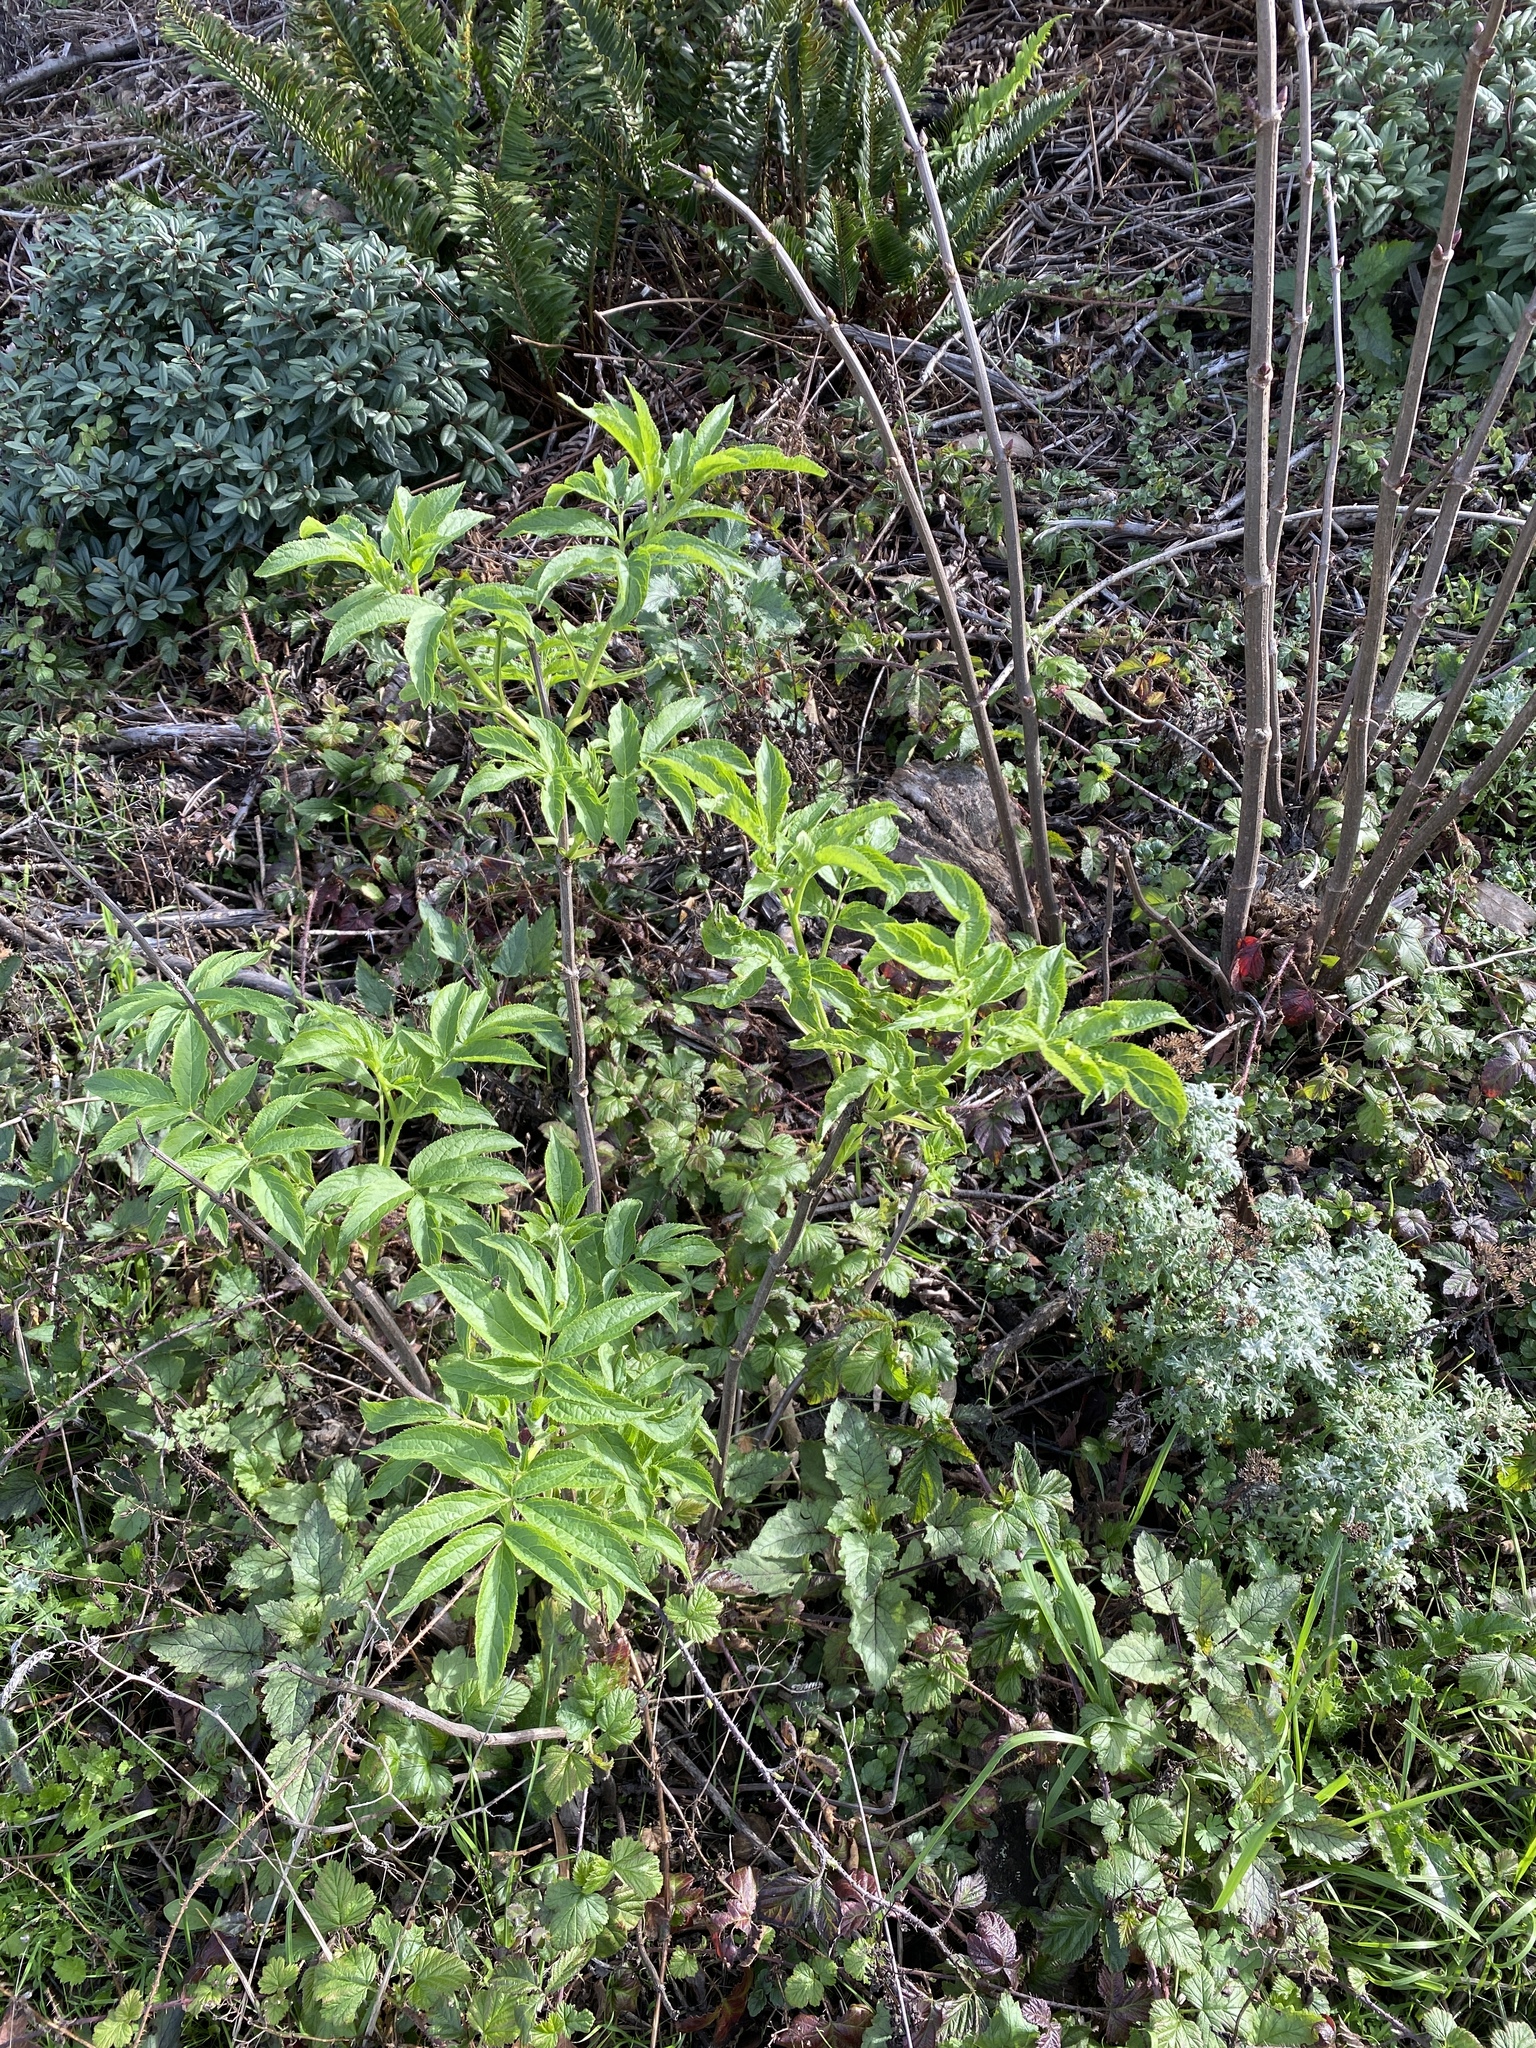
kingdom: Plantae
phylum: Tracheophyta
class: Magnoliopsida
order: Dipsacales
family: Viburnaceae
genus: Sambucus
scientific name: Sambucus racemosa
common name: Red-berried elder
